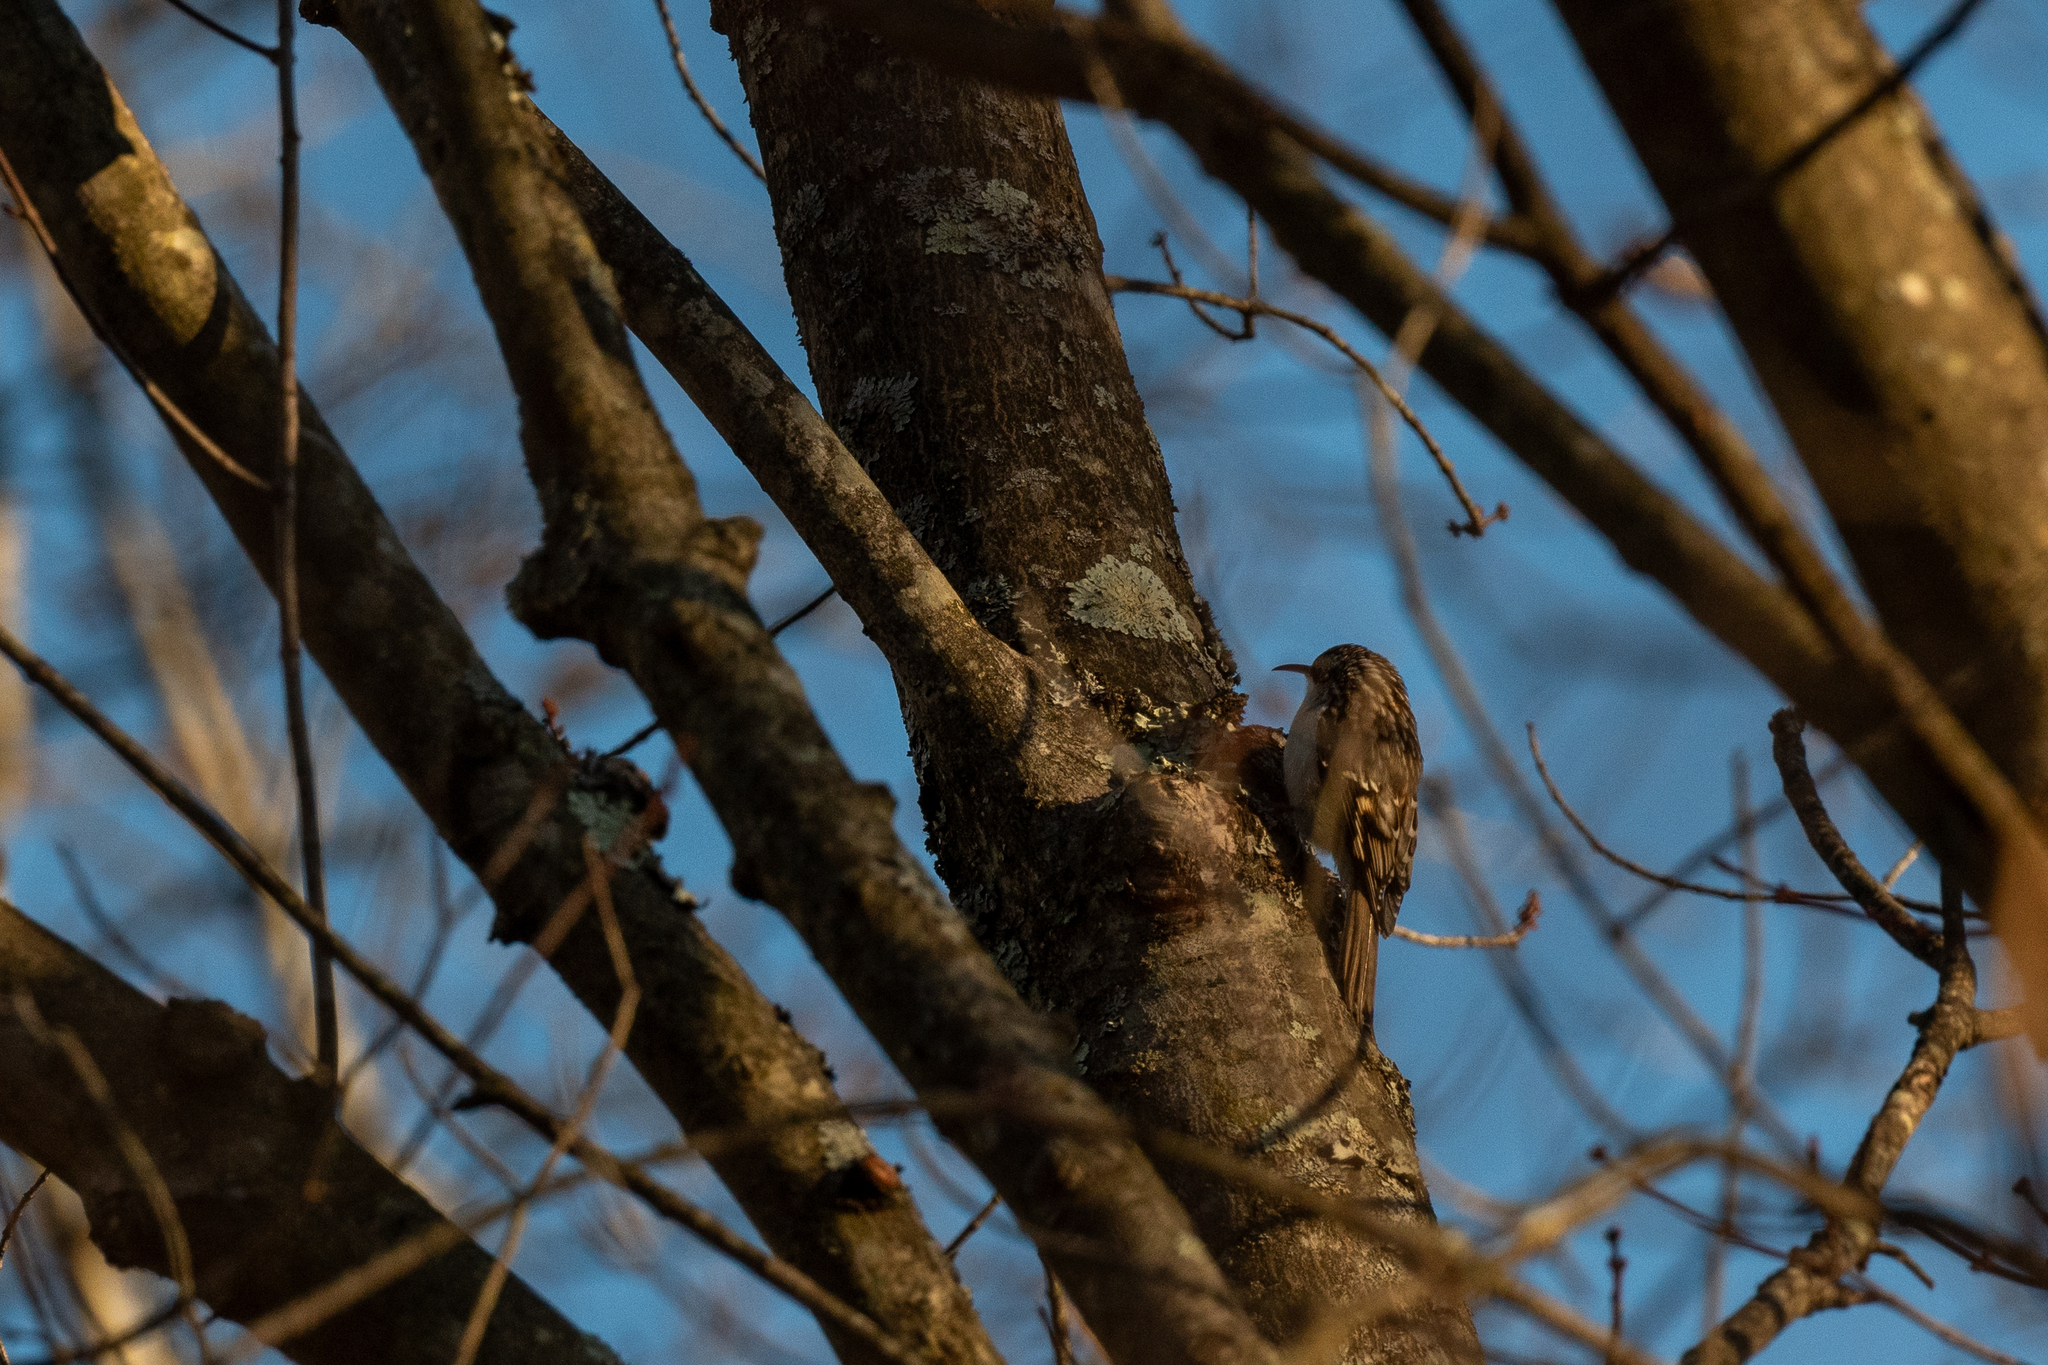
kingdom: Animalia
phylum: Chordata
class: Aves
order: Passeriformes
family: Certhiidae
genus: Certhia
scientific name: Certhia americana
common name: Brown creeper
